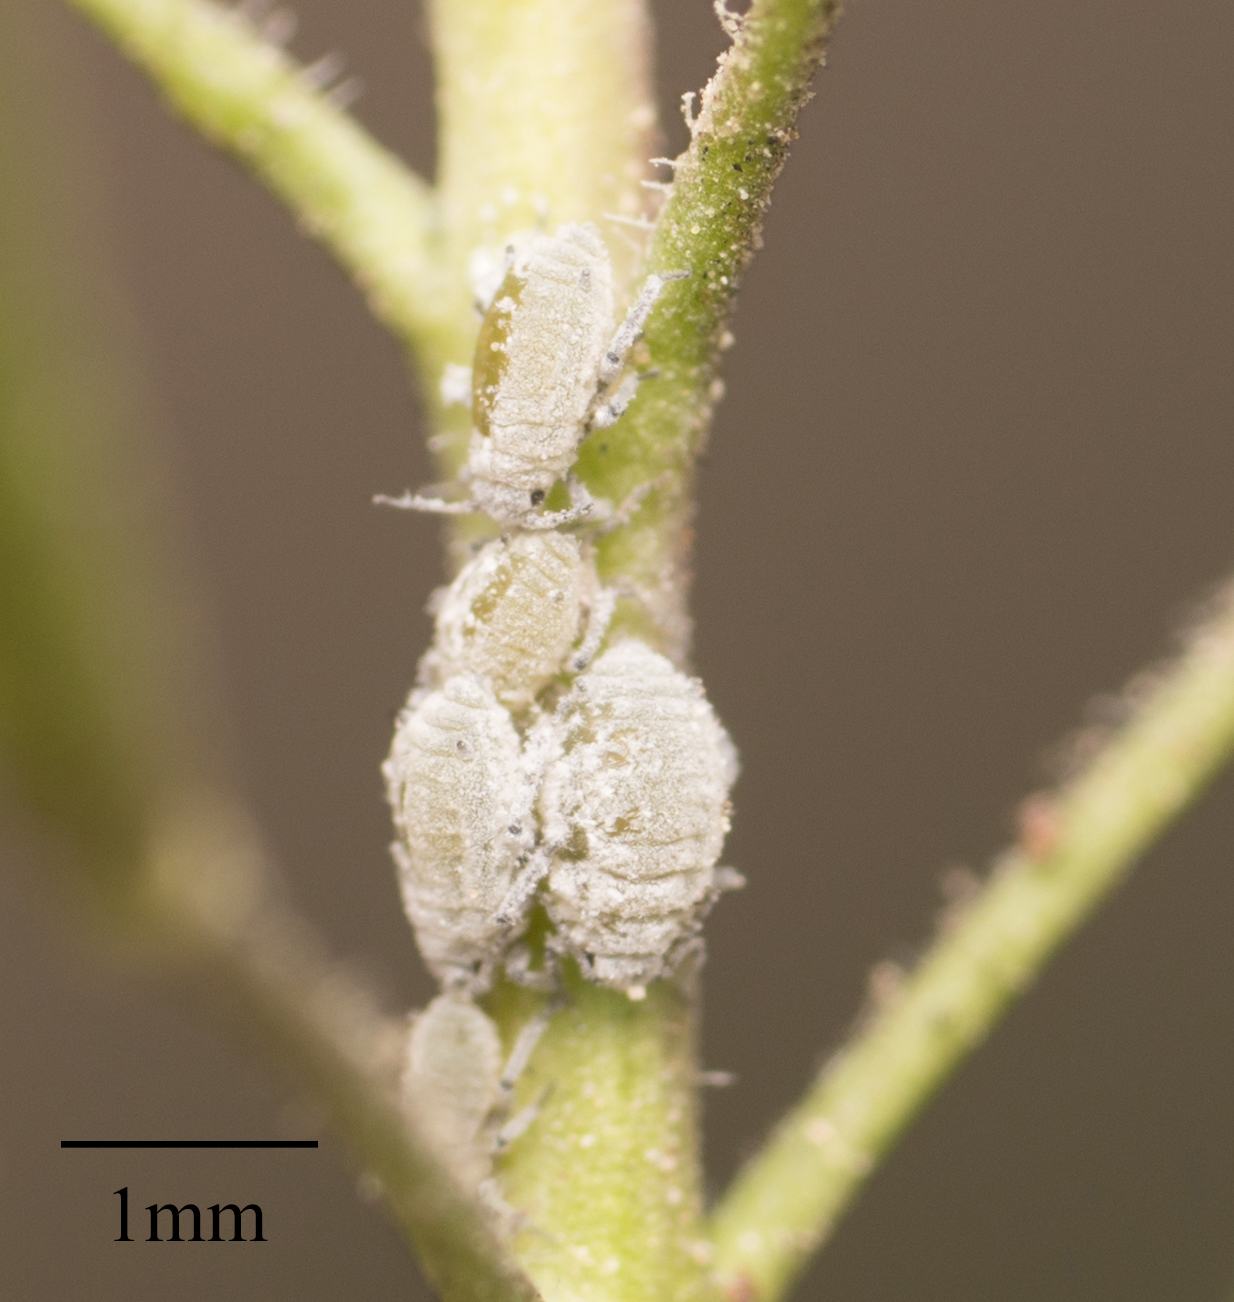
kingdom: Animalia
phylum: Arthropoda
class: Insecta
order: Hemiptera
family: Aphididae
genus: Brevicoryne
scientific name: Brevicoryne brassicae
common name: Cabbage aphid
